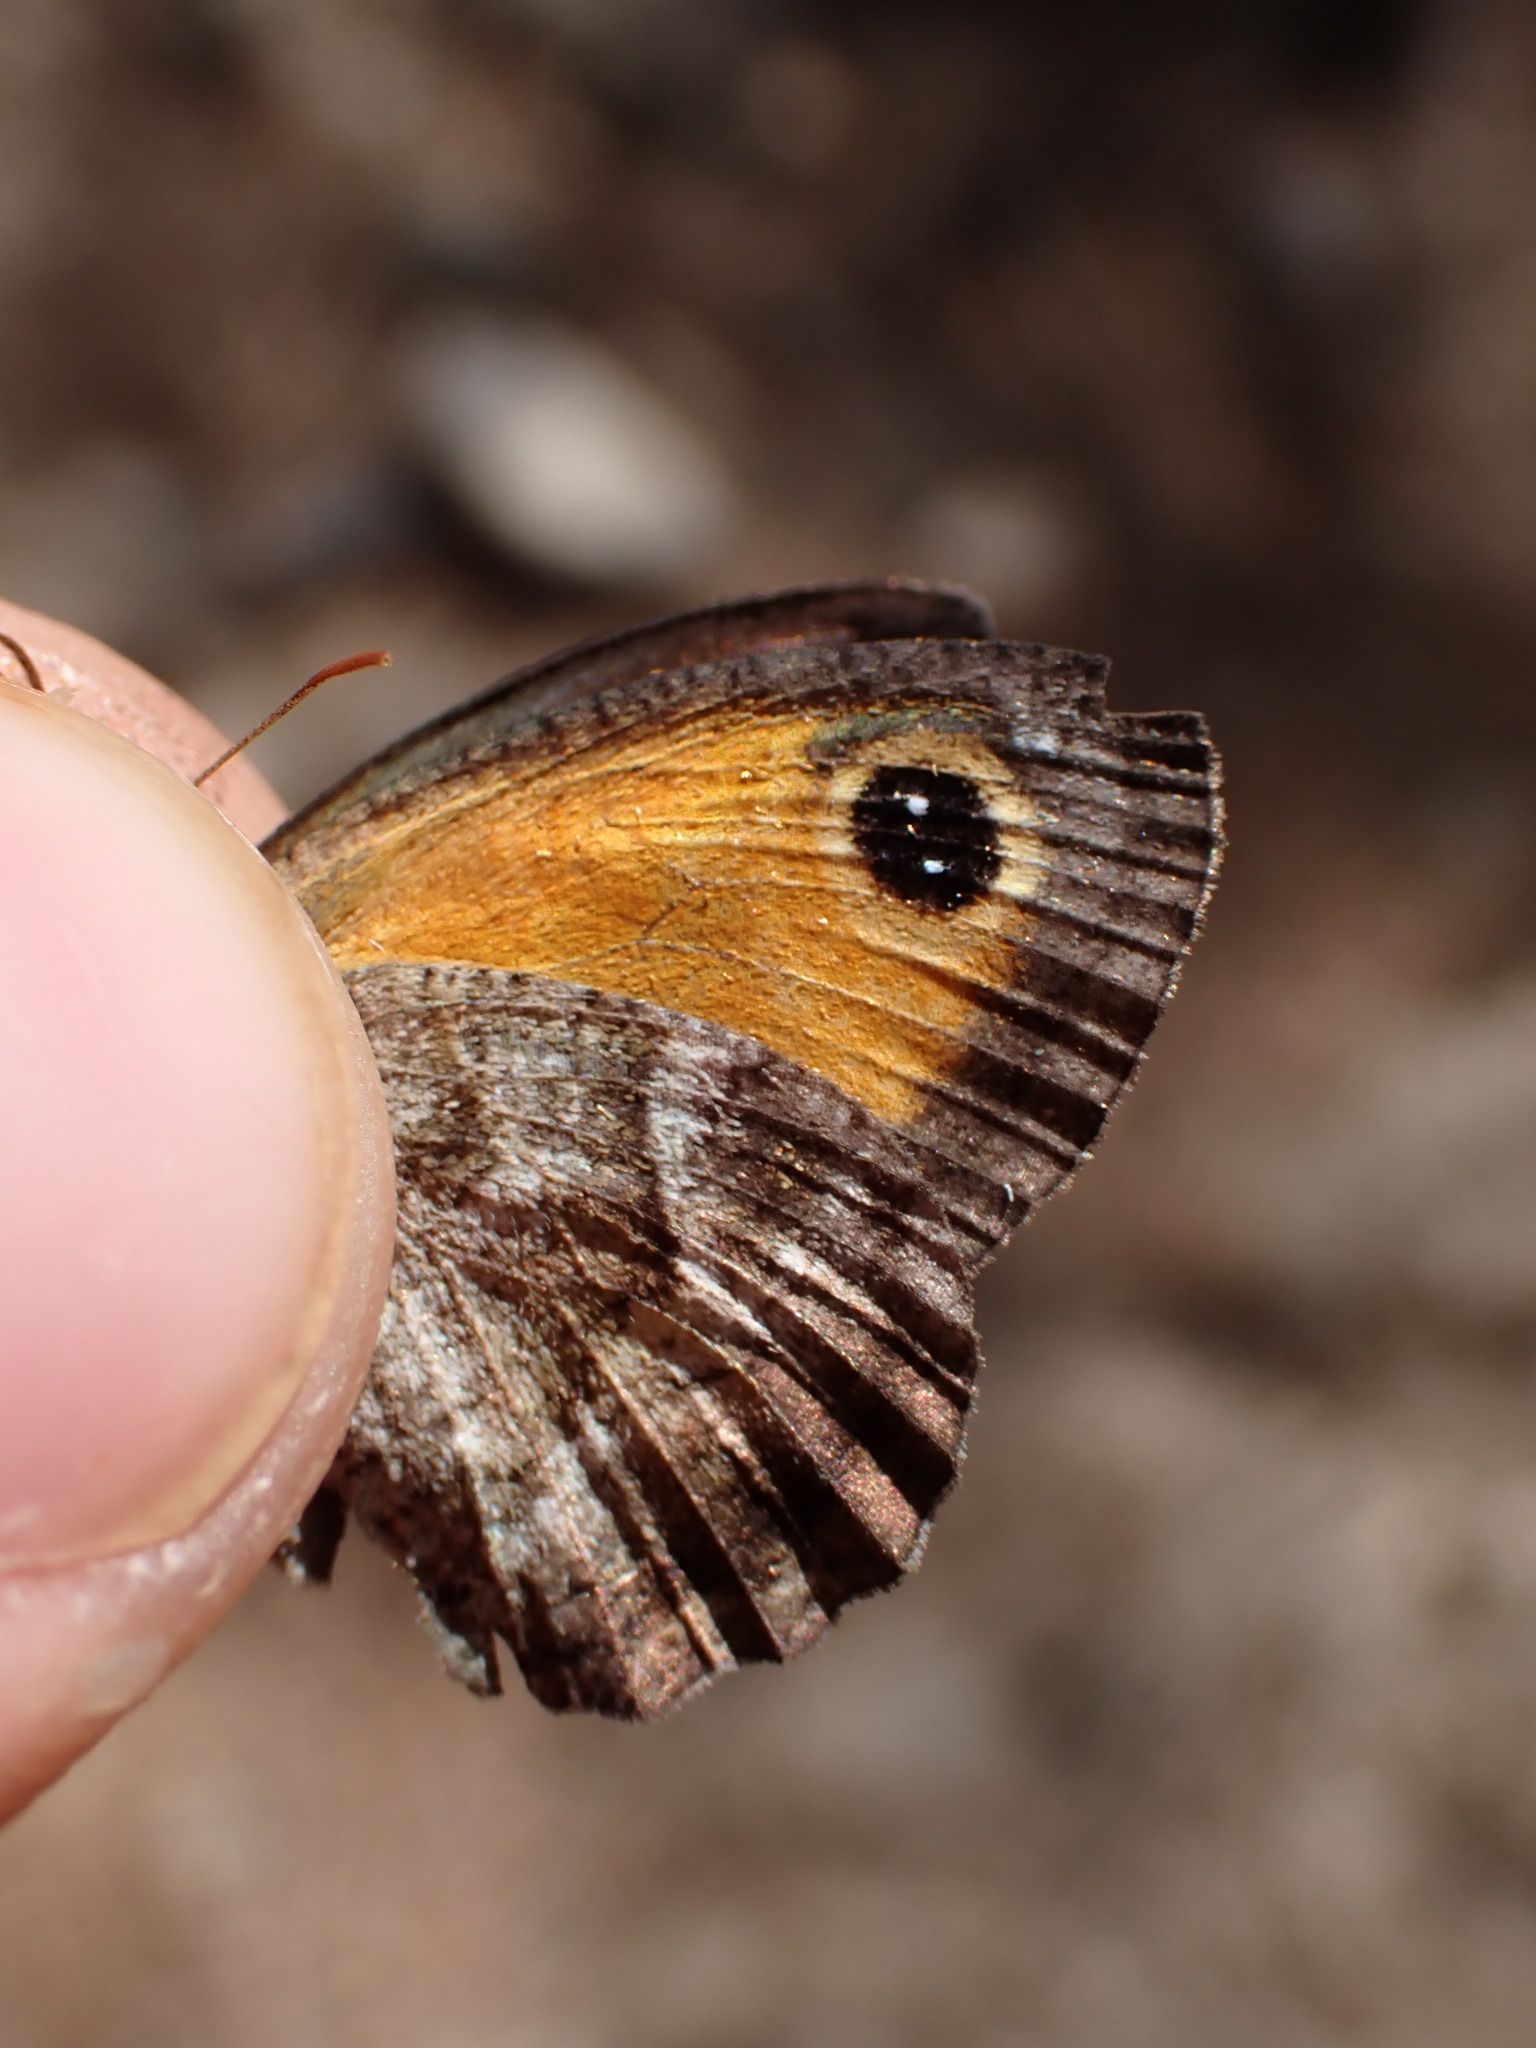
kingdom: Animalia
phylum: Arthropoda
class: Insecta
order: Lepidoptera
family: Nymphalidae
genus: Pyronia
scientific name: Pyronia cecilia
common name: Southern gatekeeper
